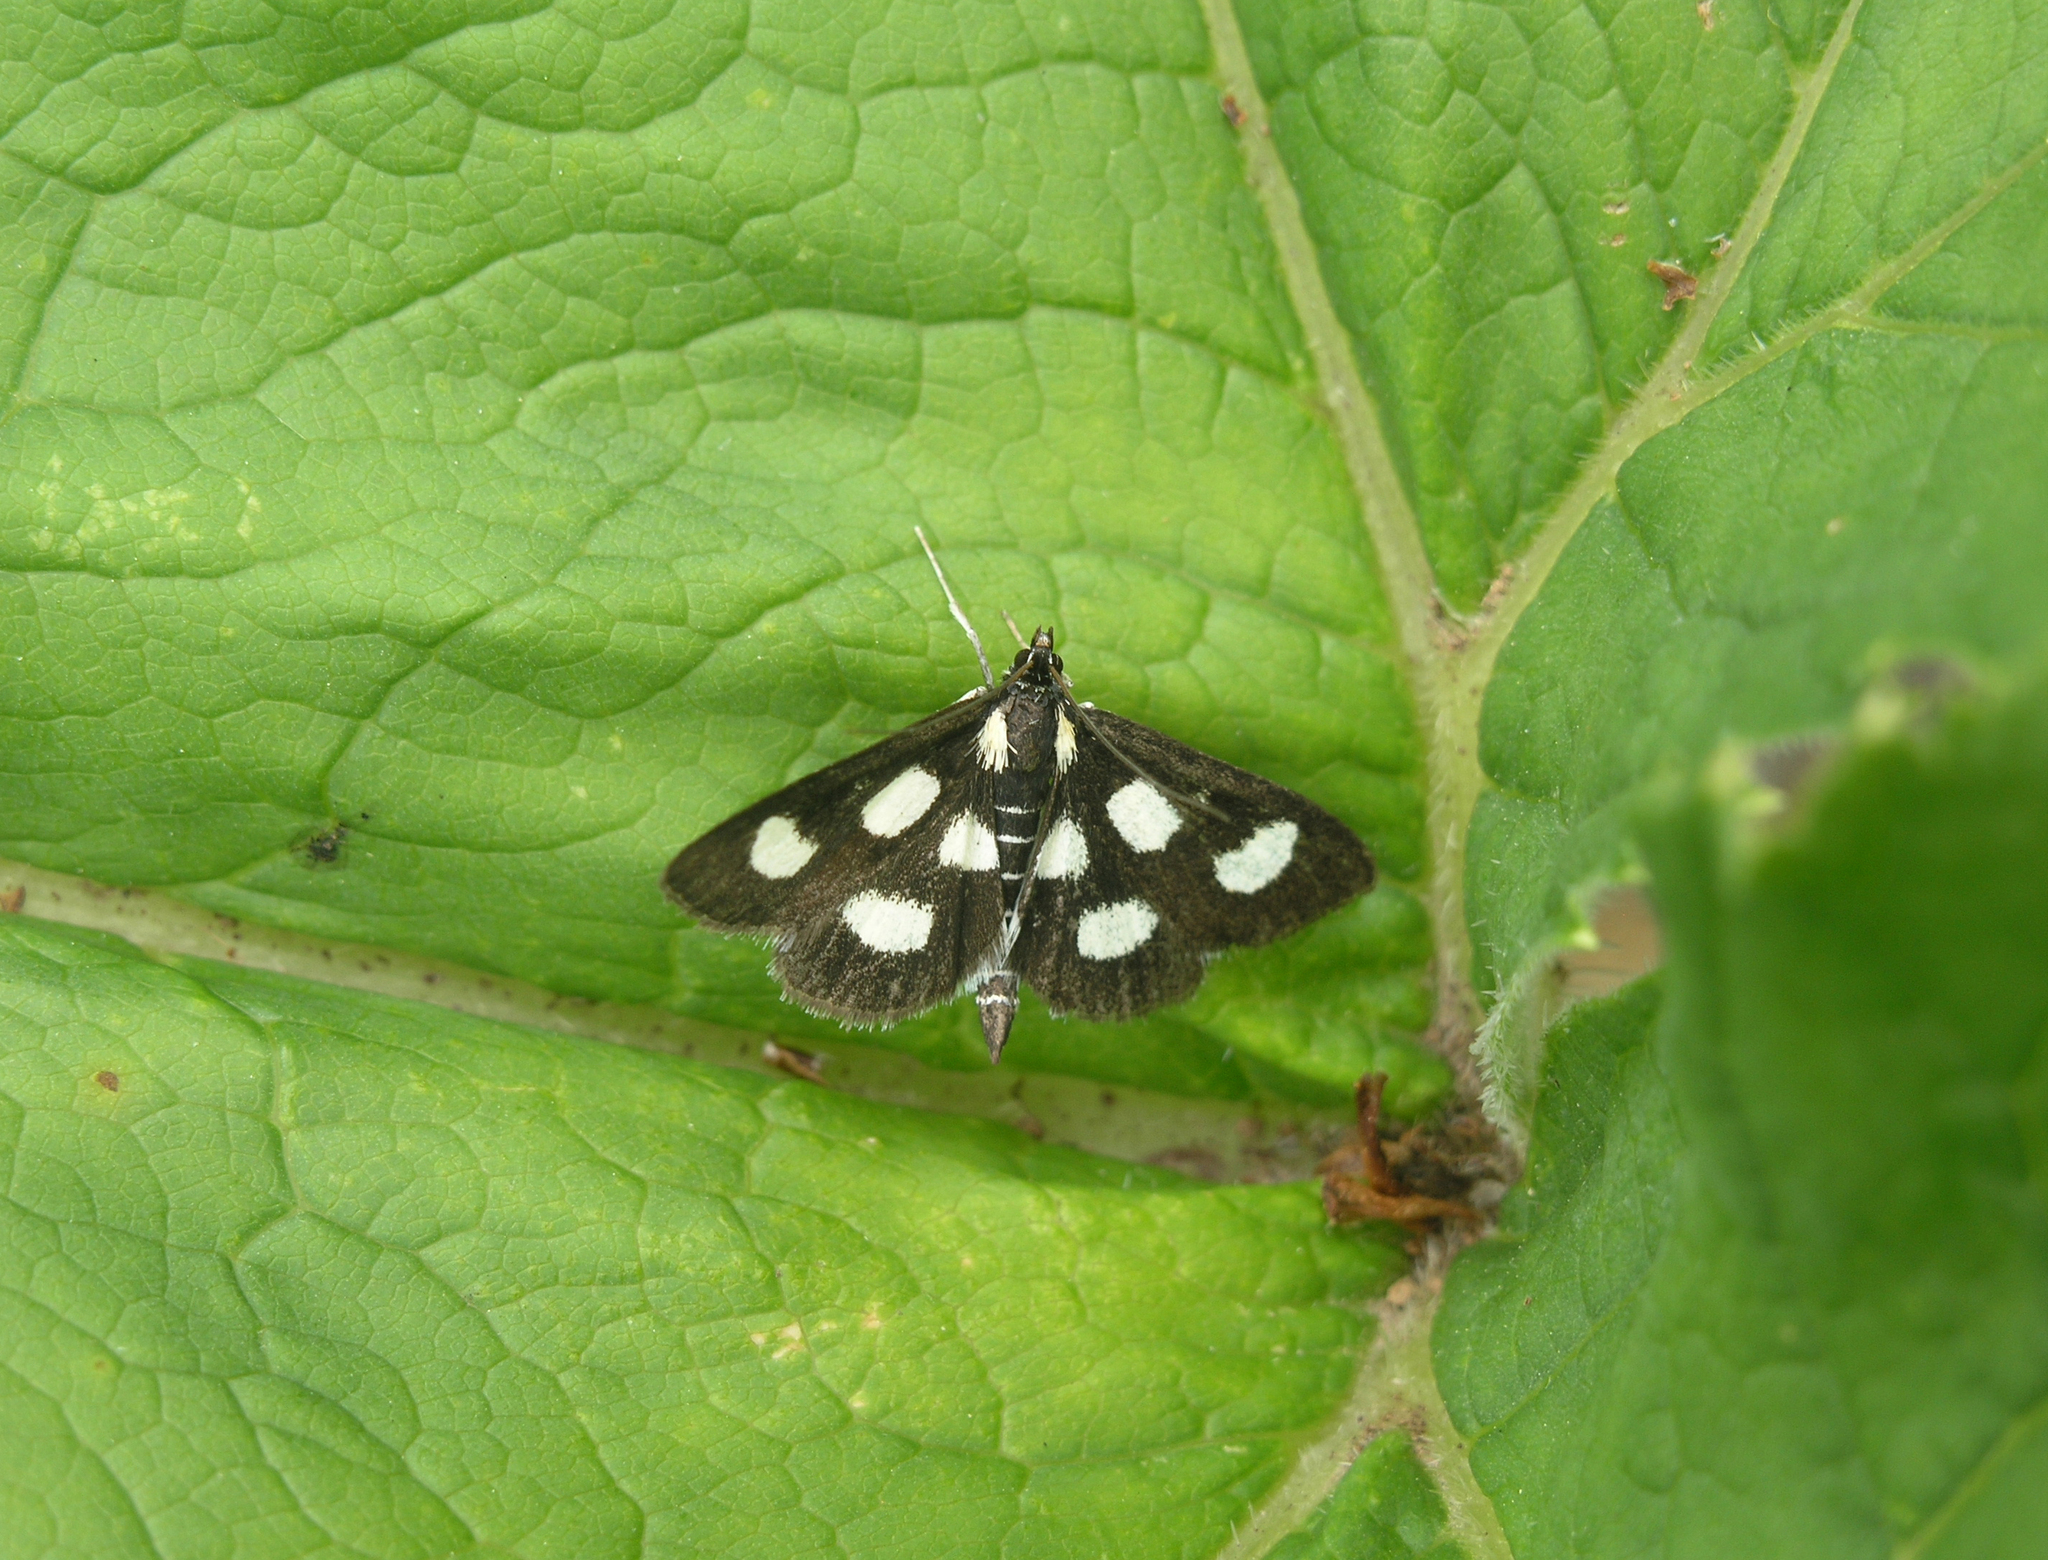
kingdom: Animalia
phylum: Arthropoda
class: Insecta
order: Lepidoptera
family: Crambidae
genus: Anania
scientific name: Anania funebris
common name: White-spotted sable moth
